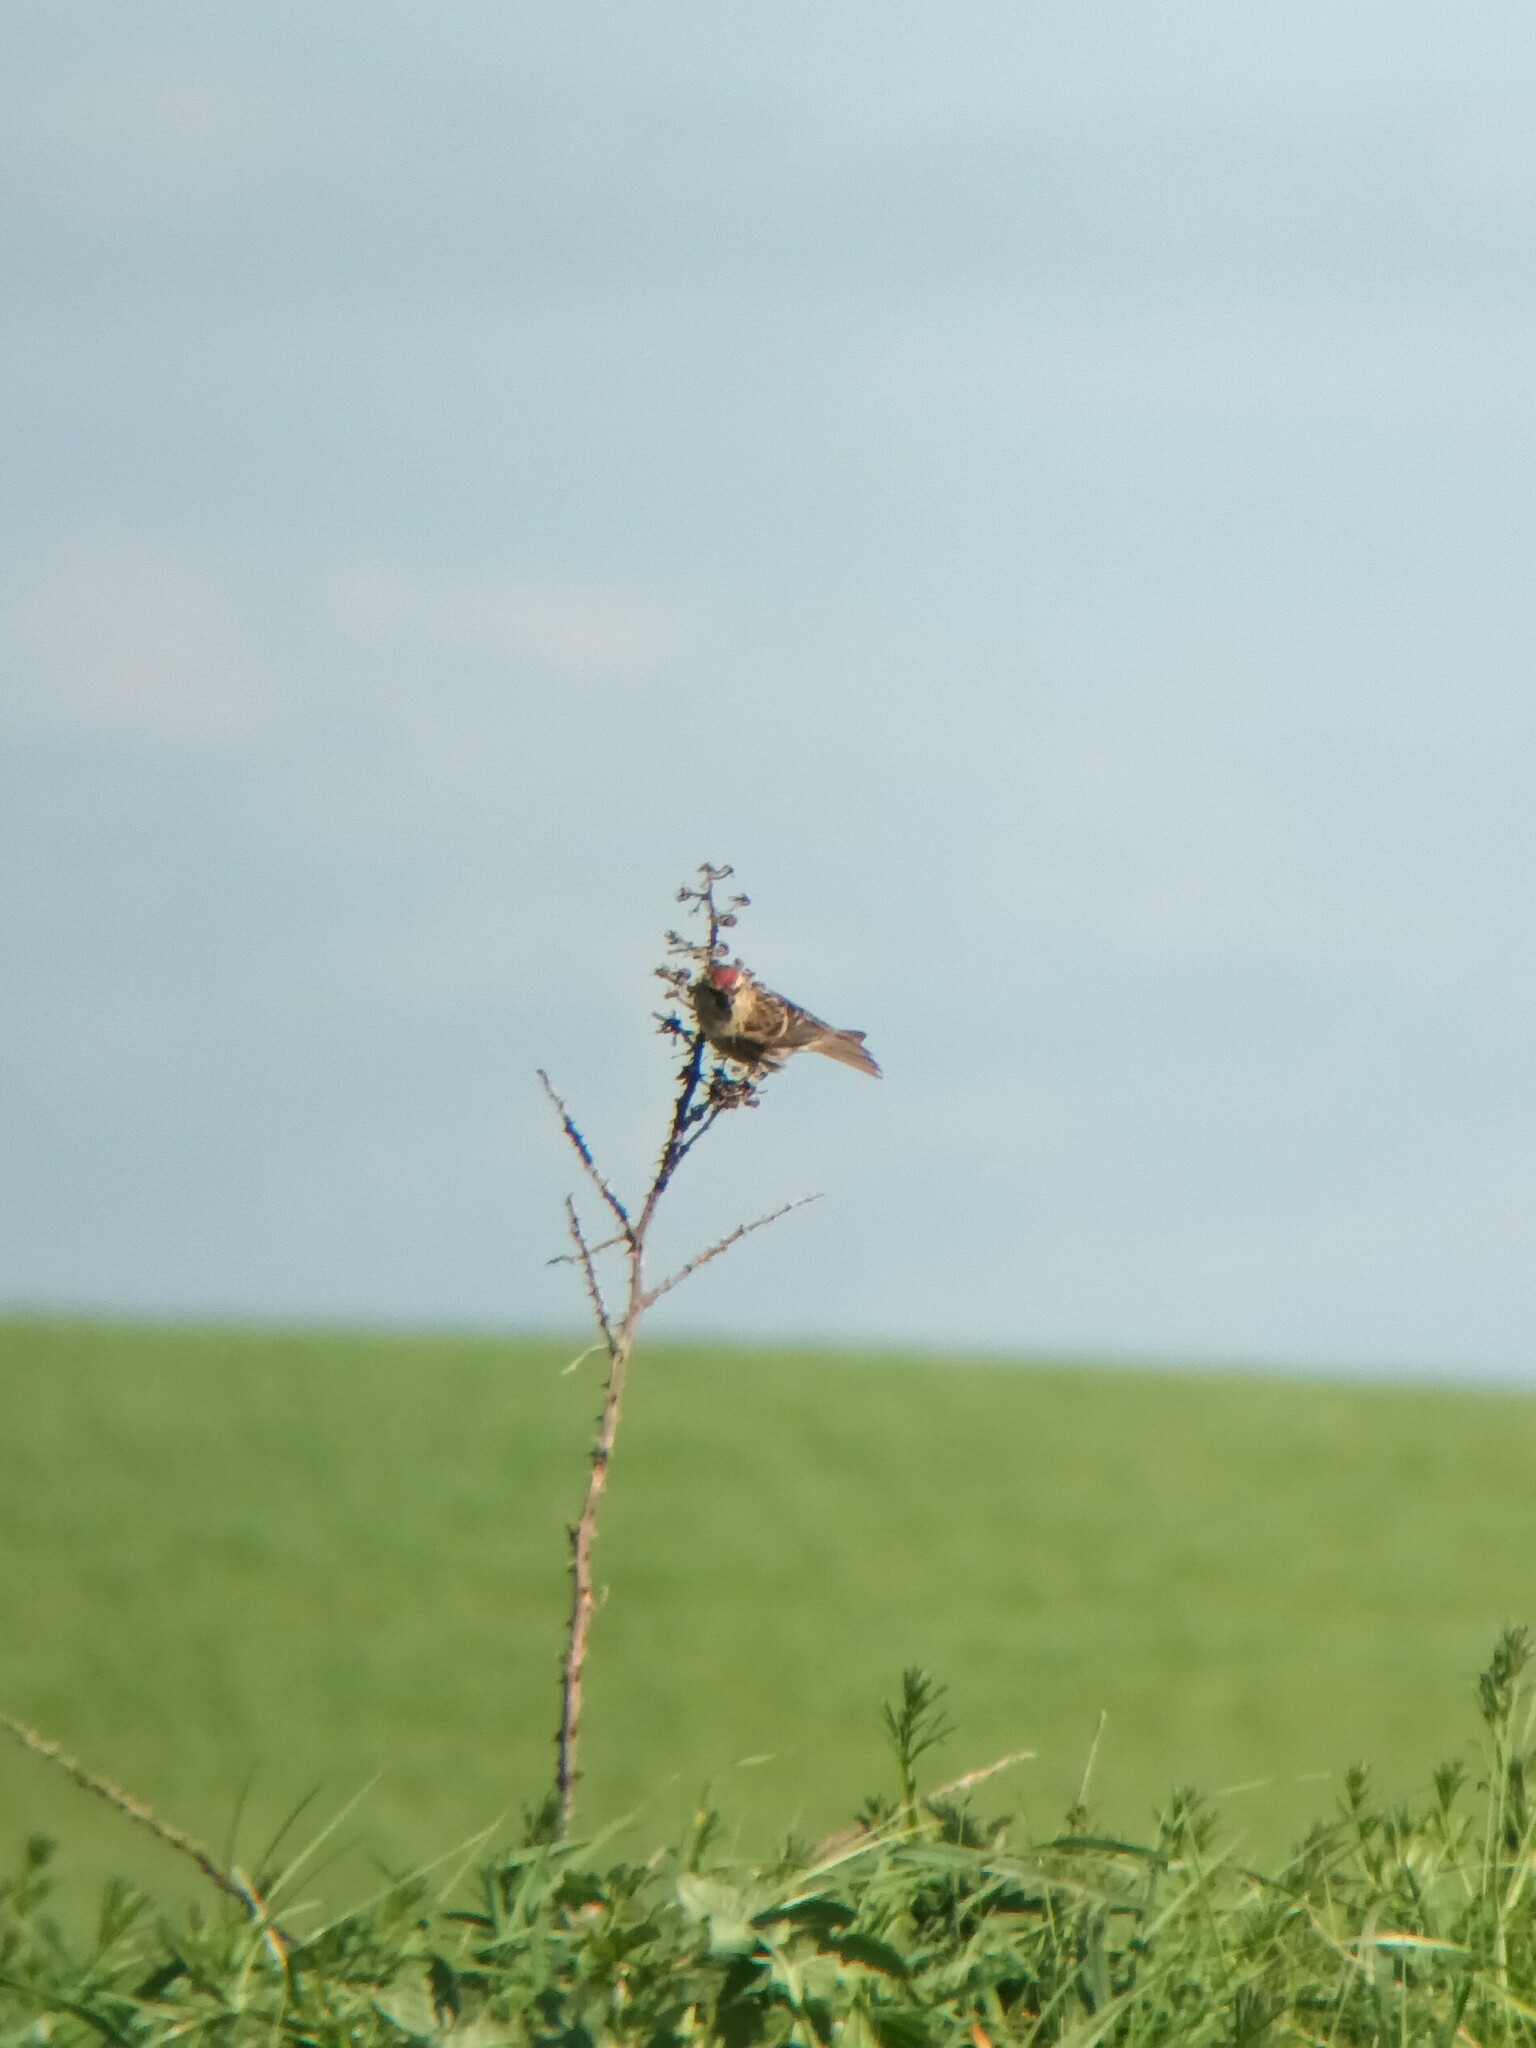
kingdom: Animalia
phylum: Chordata
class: Aves
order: Passeriformes
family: Fringillidae
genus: Acanthis
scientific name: Acanthis flammea
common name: Common redpoll
